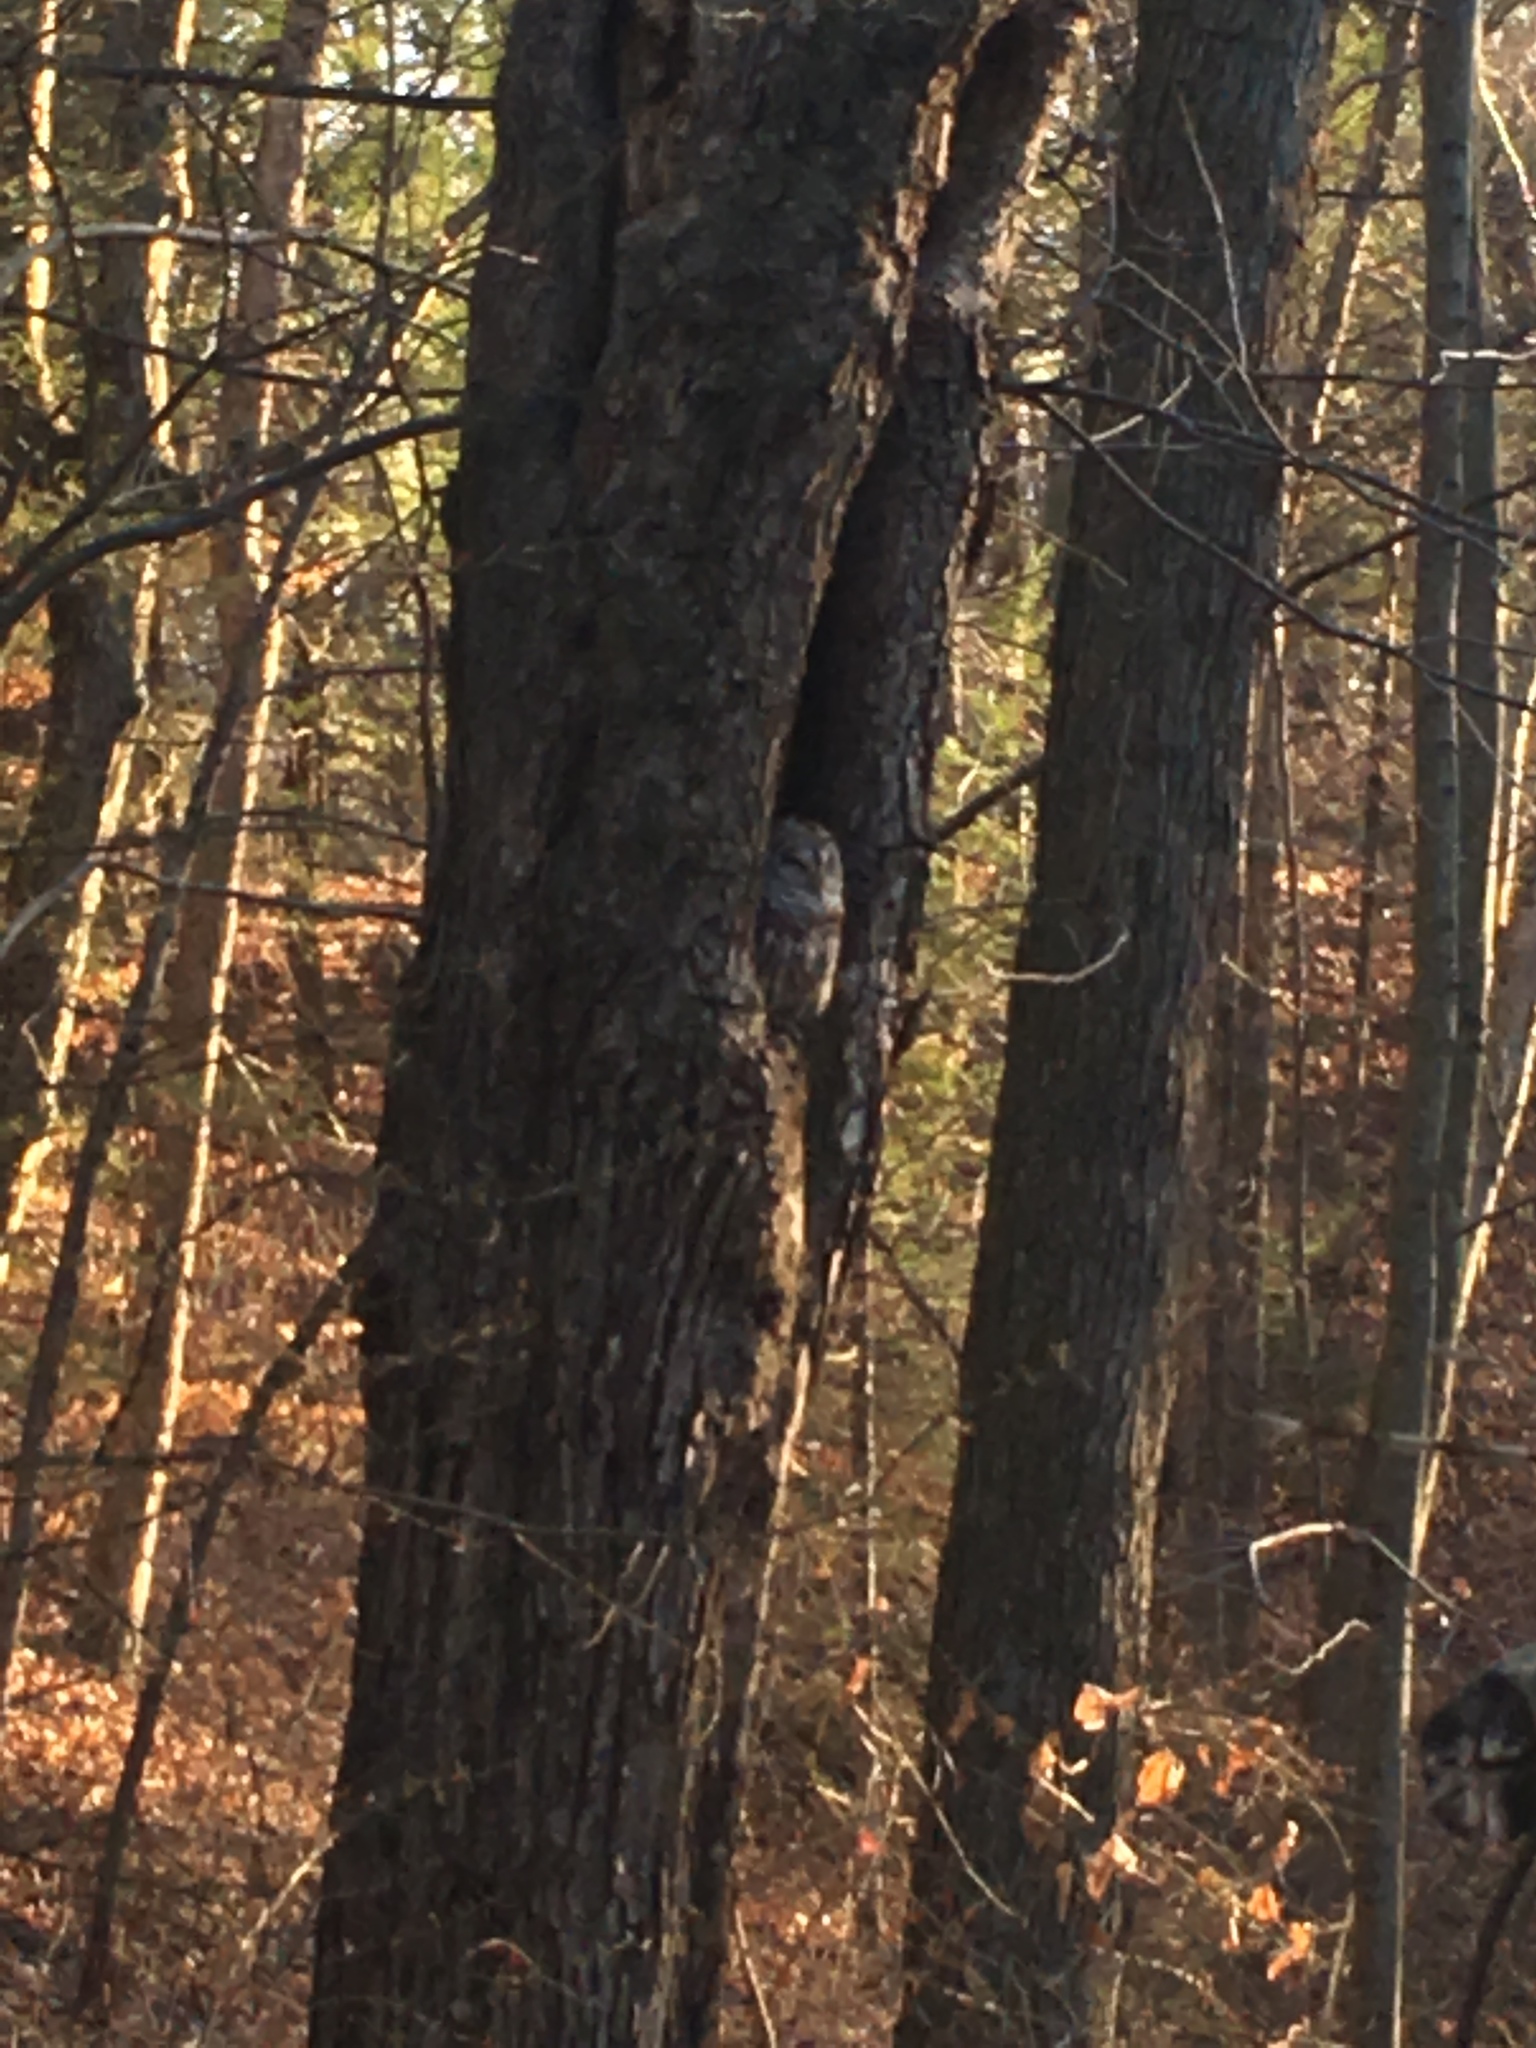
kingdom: Animalia
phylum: Chordata
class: Aves
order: Strigiformes
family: Strigidae
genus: Strix
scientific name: Strix varia
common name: Barred owl
